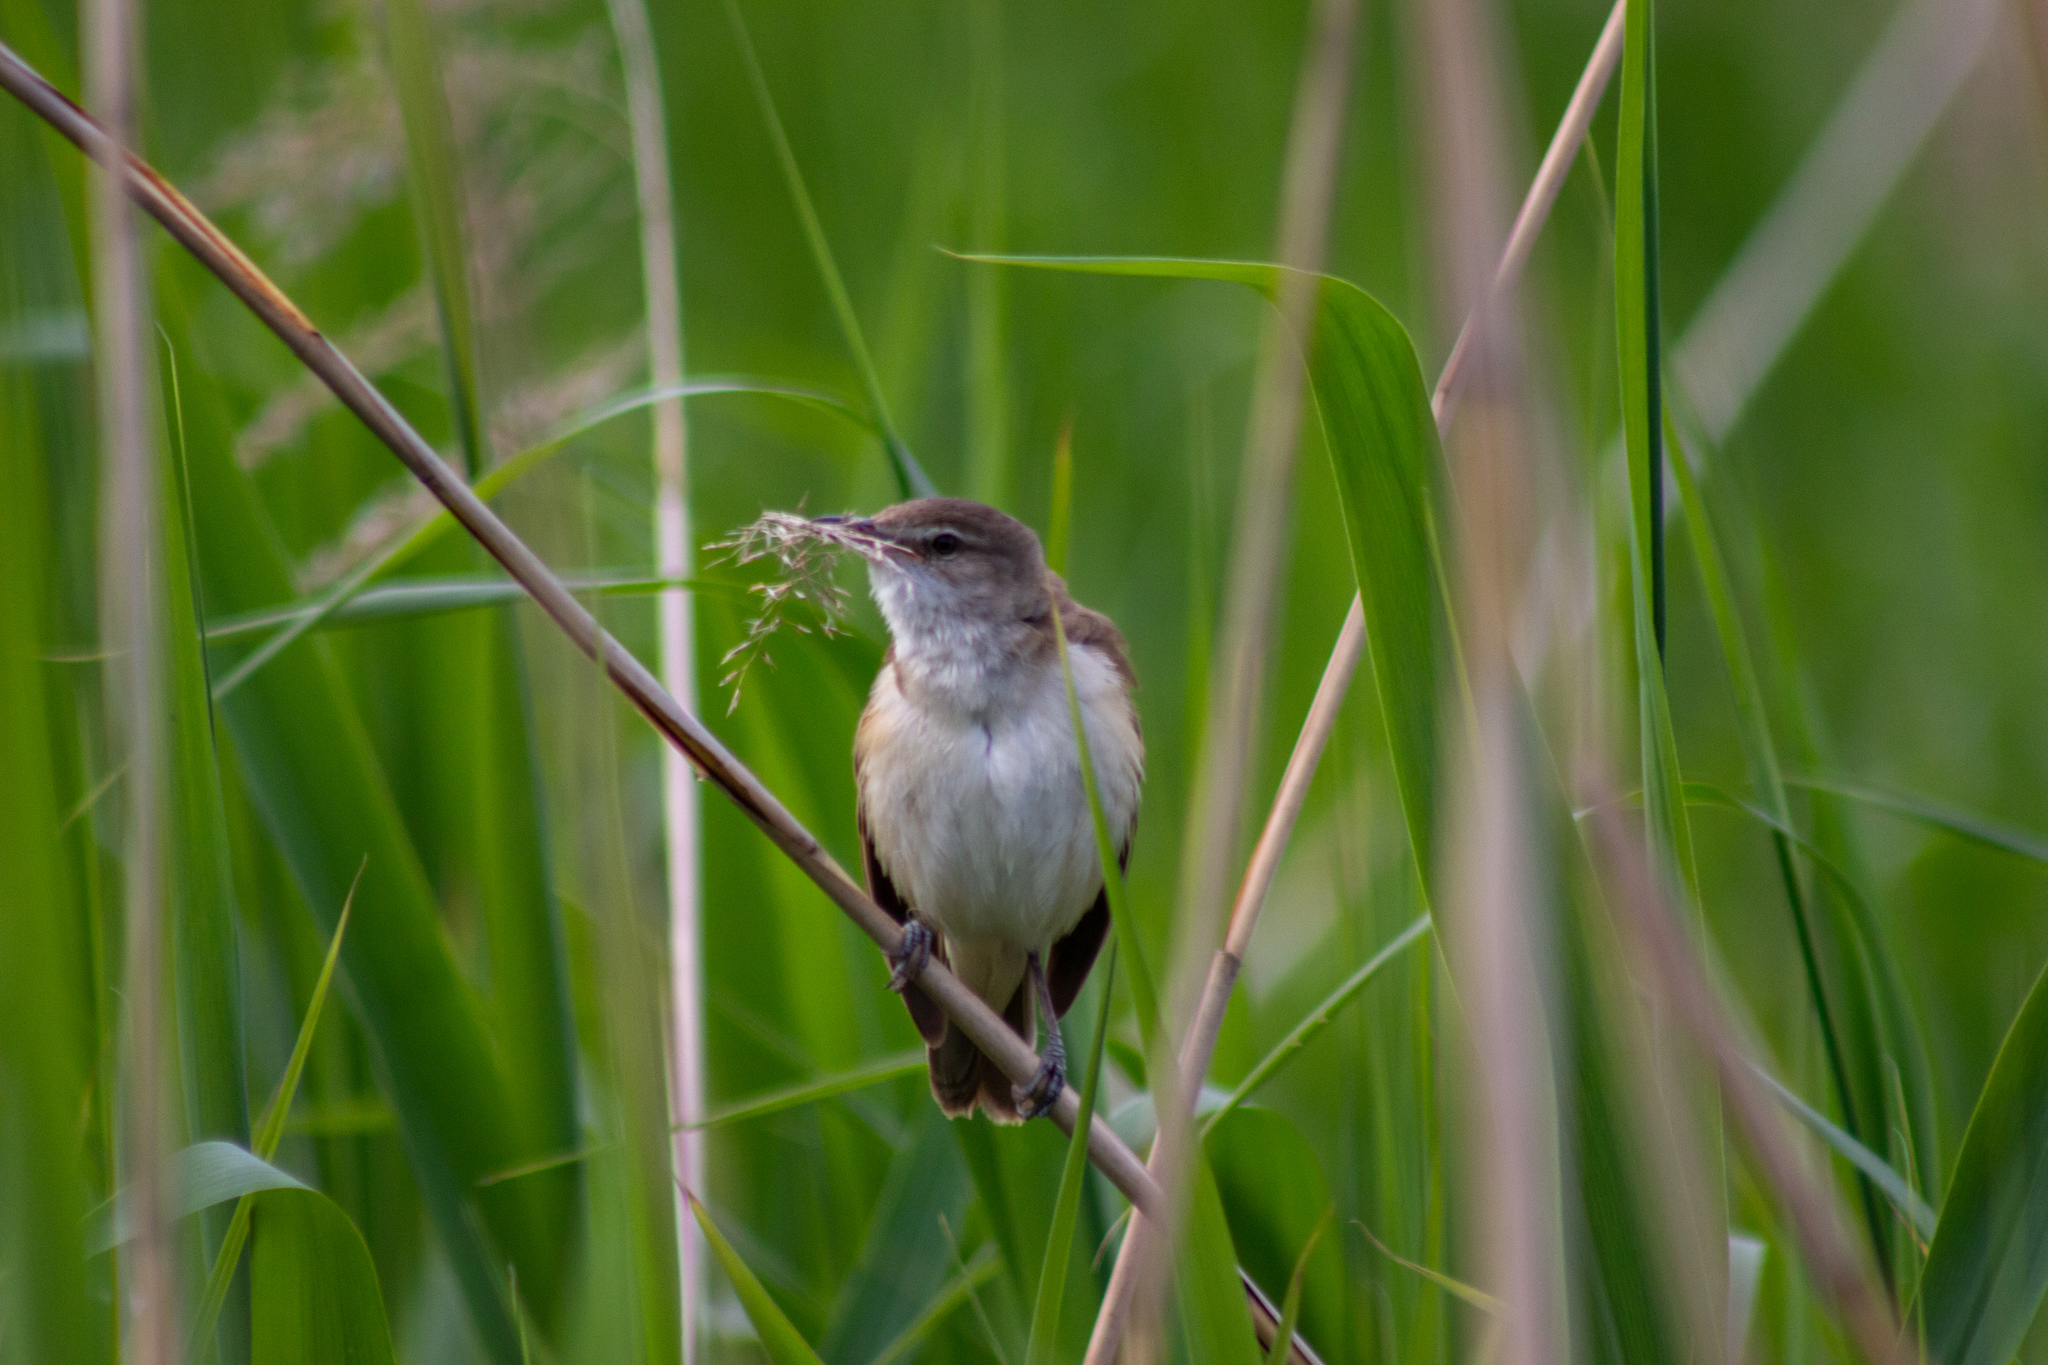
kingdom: Animalia
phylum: Chordata
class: Aves
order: Passeriformes
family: Acrocephalidae
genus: Acrocephalus
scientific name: Acrocephalus arundinaceus
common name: Great reed warbler
